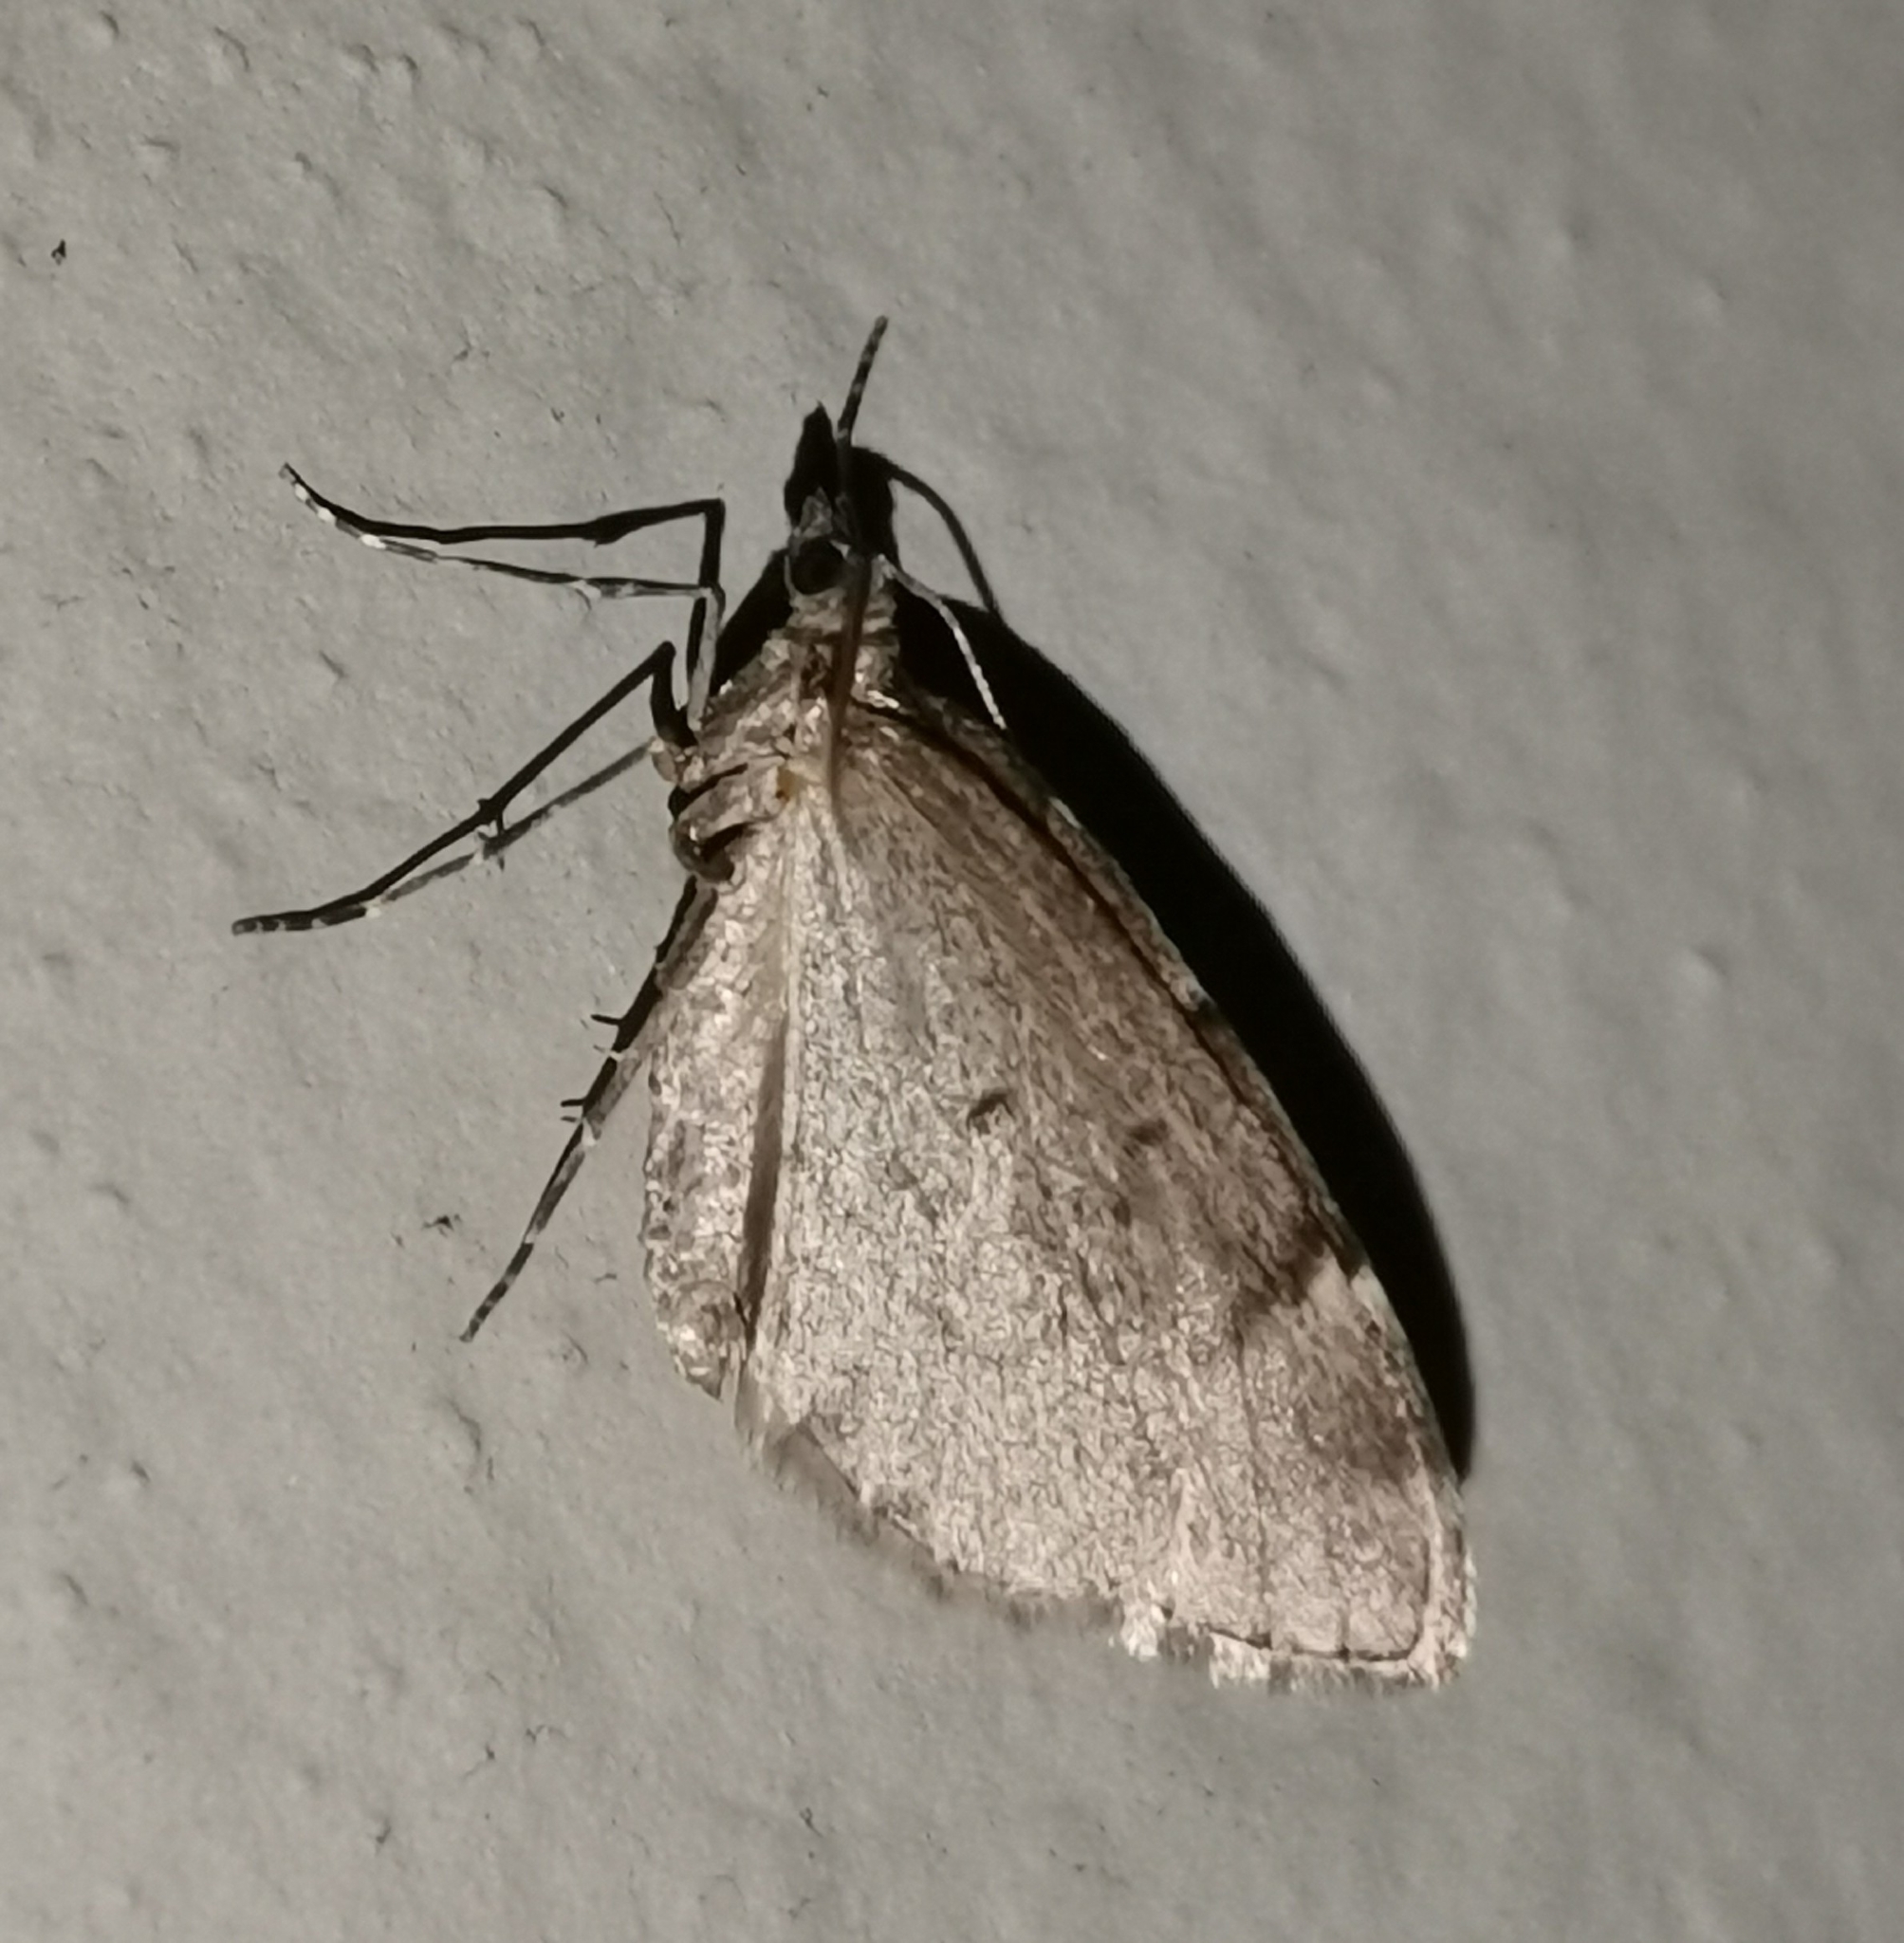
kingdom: Animalia
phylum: Arthropoda
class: Insecta
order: Lepidoptera
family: Geometridae
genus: Thera
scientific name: Thera juniperata
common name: Juniper carpet
